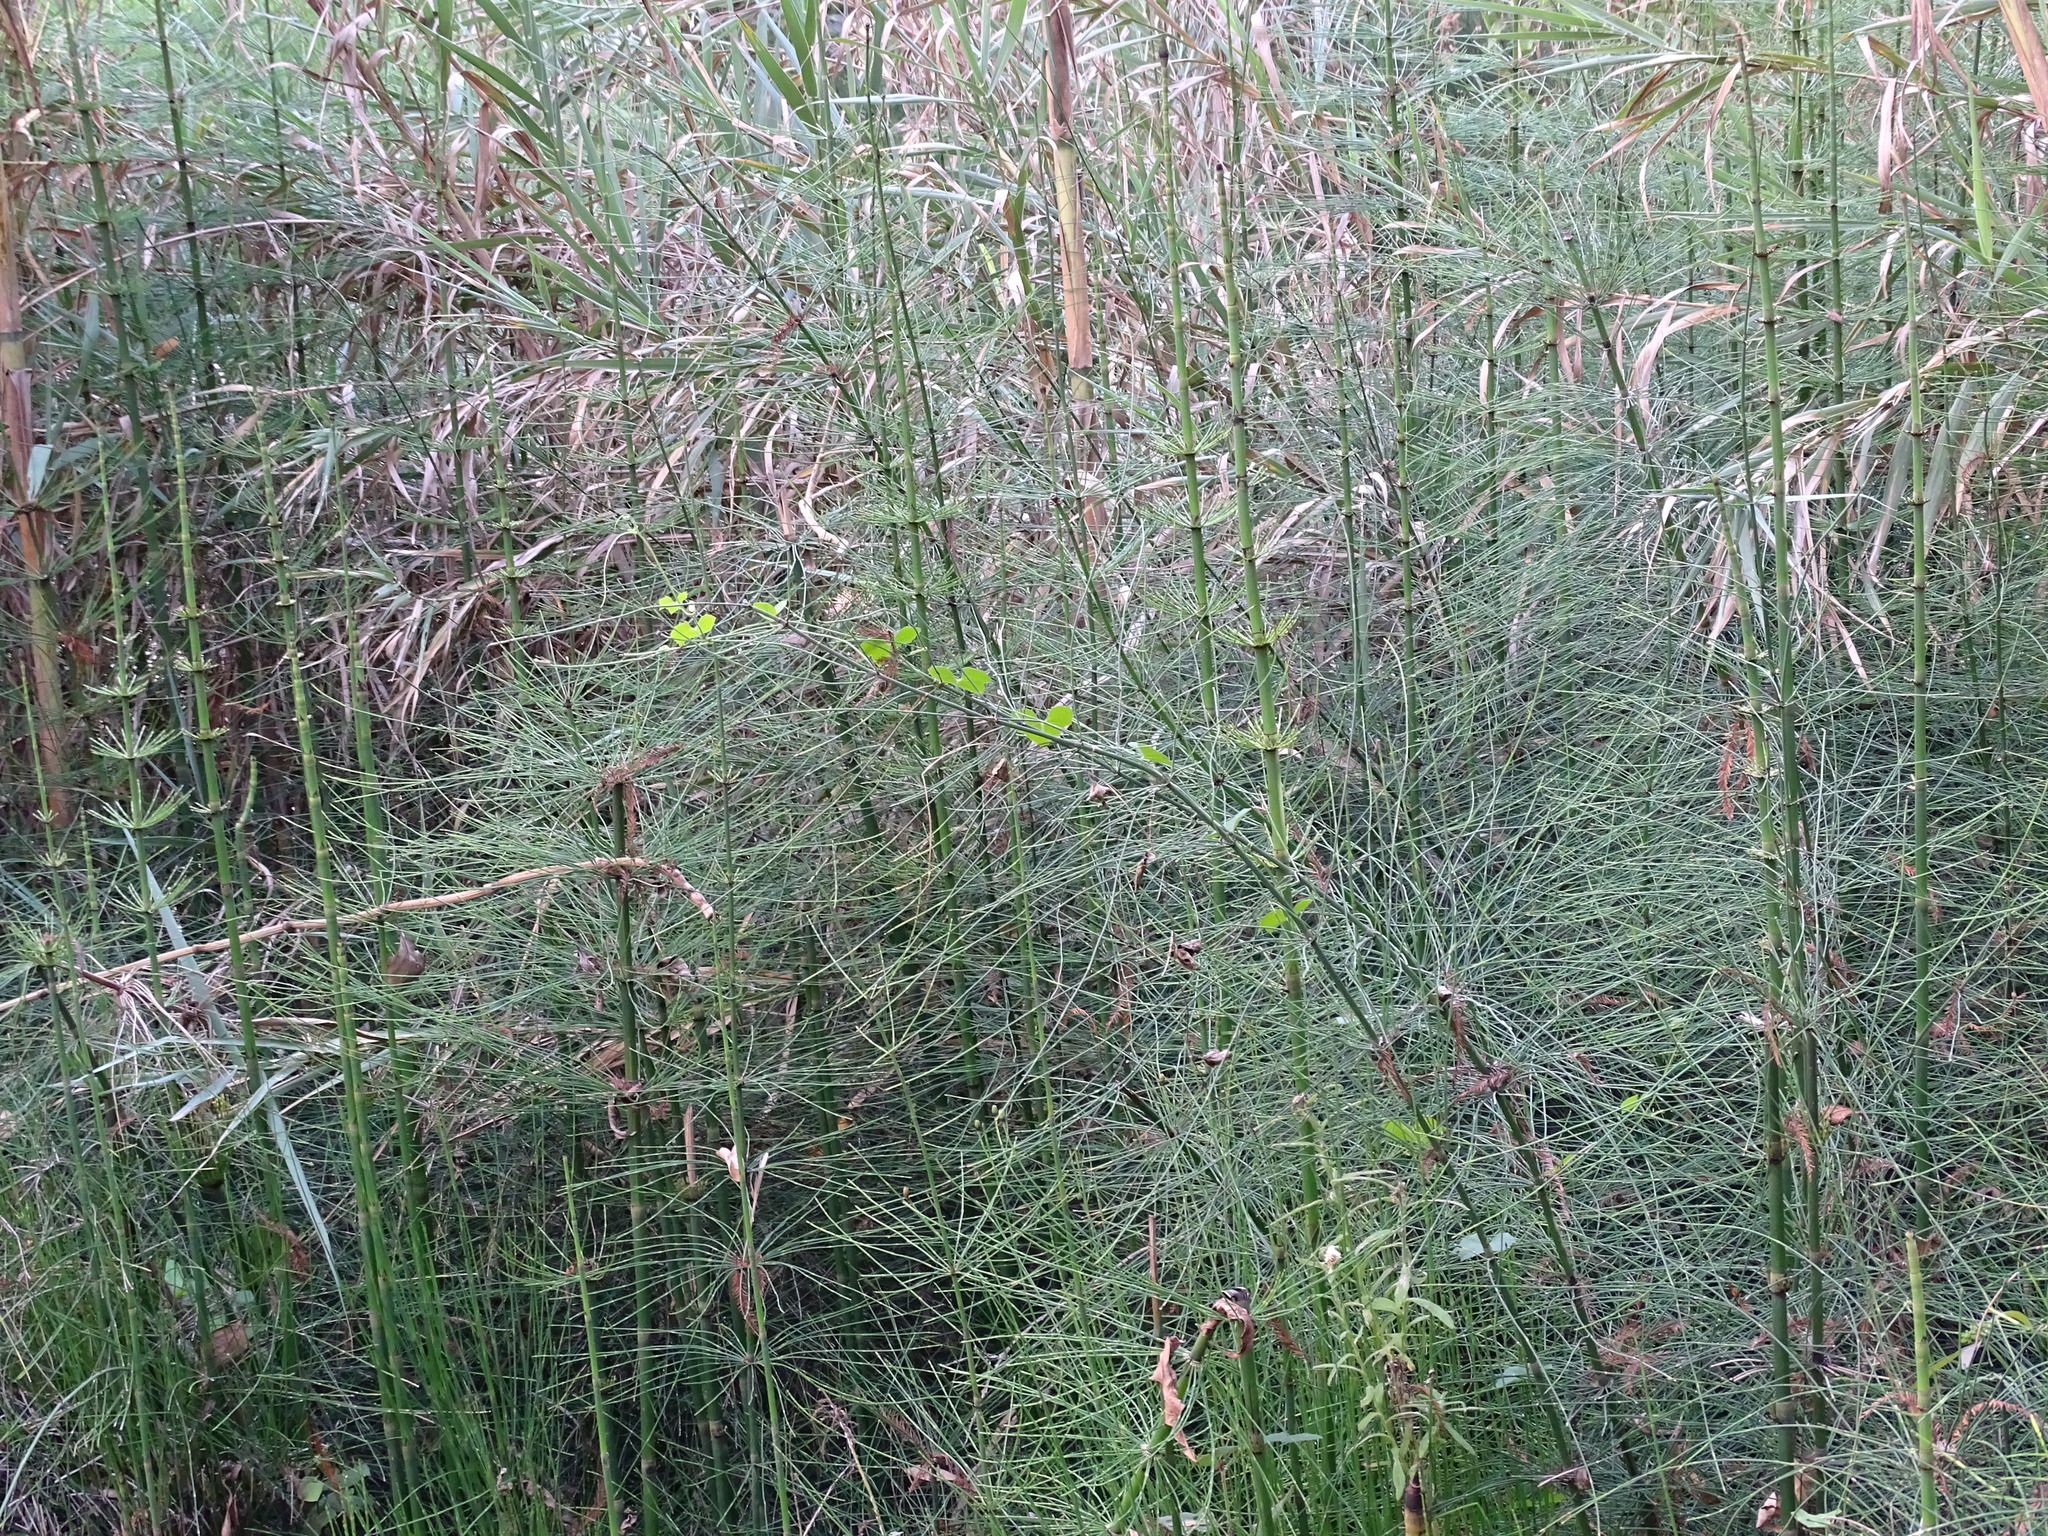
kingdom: Plantae
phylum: Tracheophyta
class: Polypodiopsida
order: Equisetales
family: Equisetaceae
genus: Equisetum
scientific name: Equisetum myriochaetum
